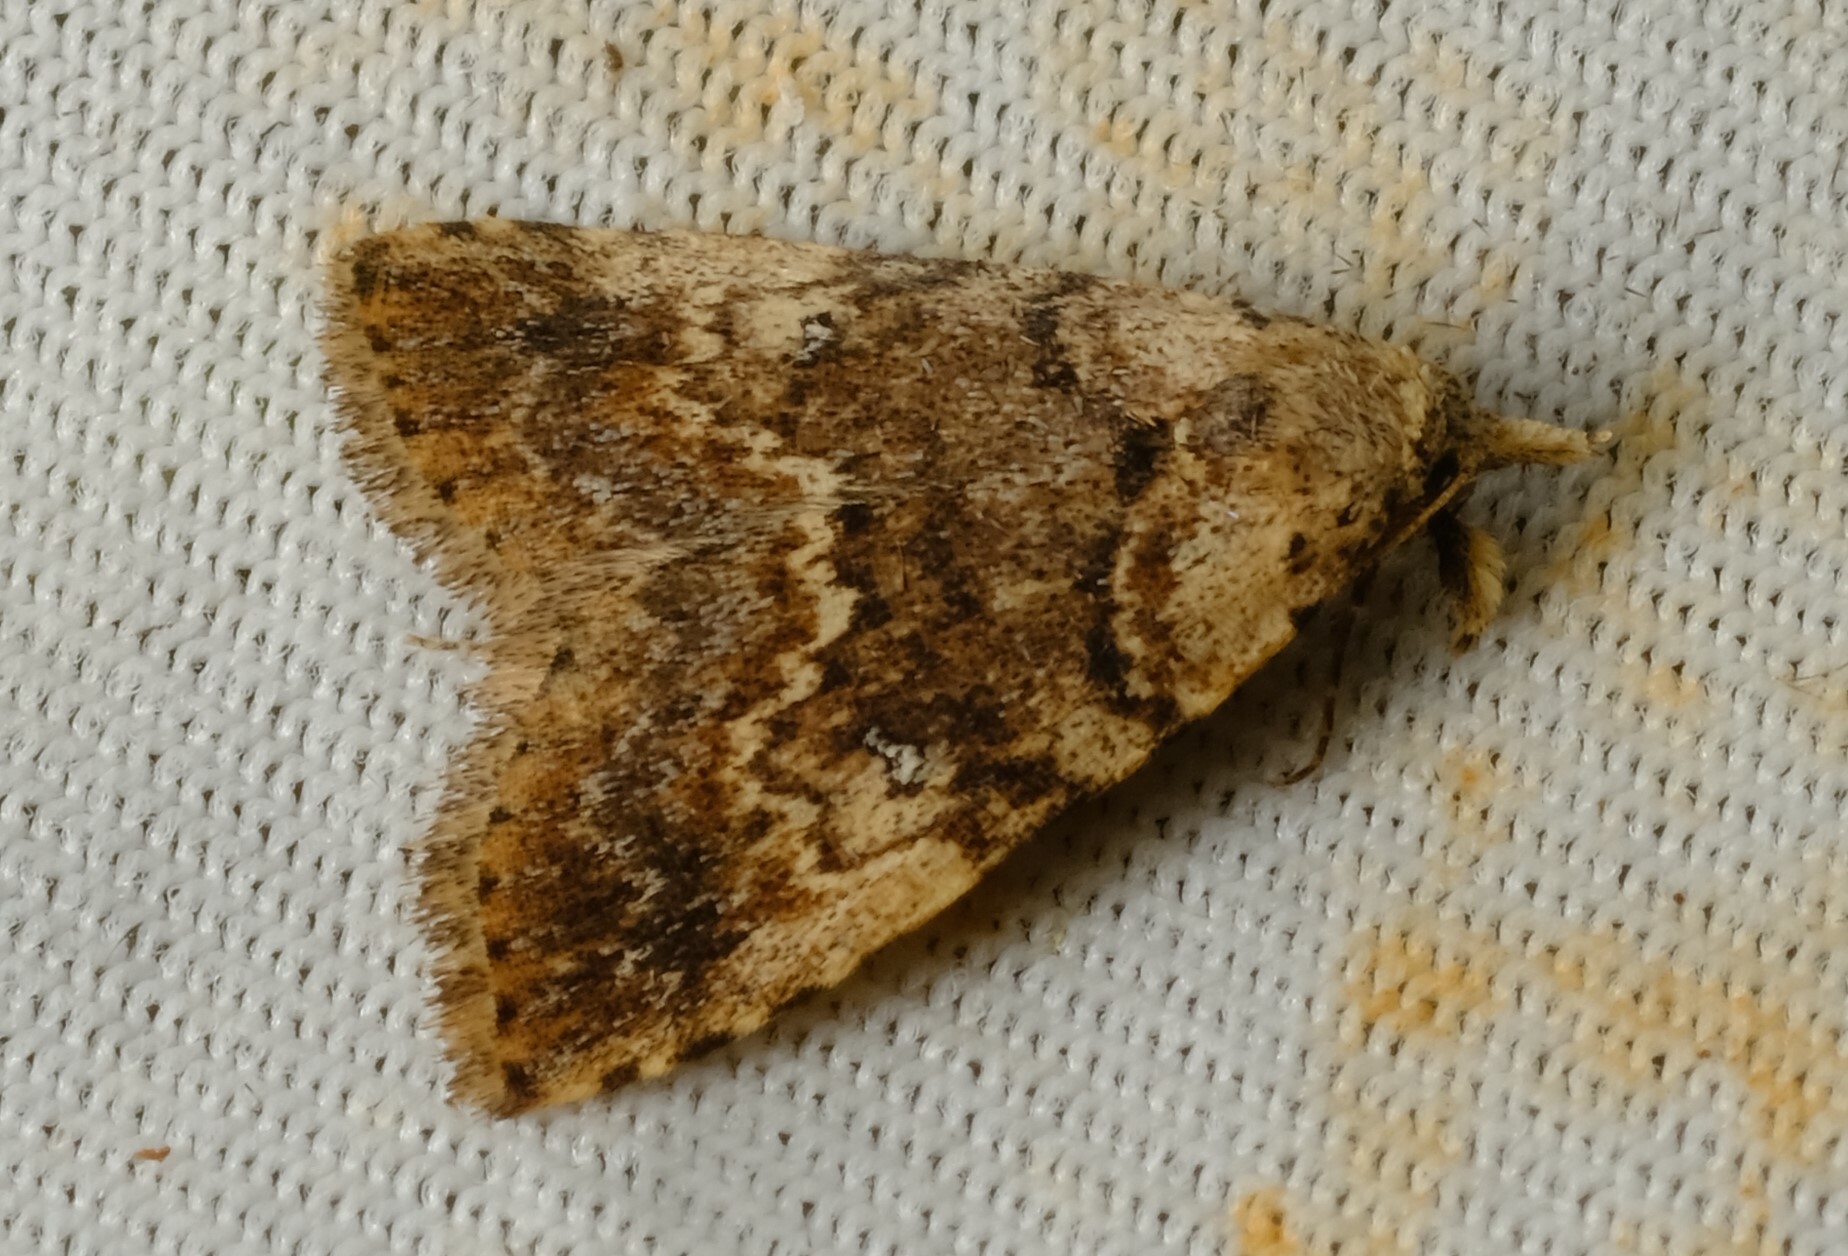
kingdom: Animalia
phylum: Arthropoda
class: Insecta
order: Lepidoptera
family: Erebidae
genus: Alapadna
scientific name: Alapadna pauropis
